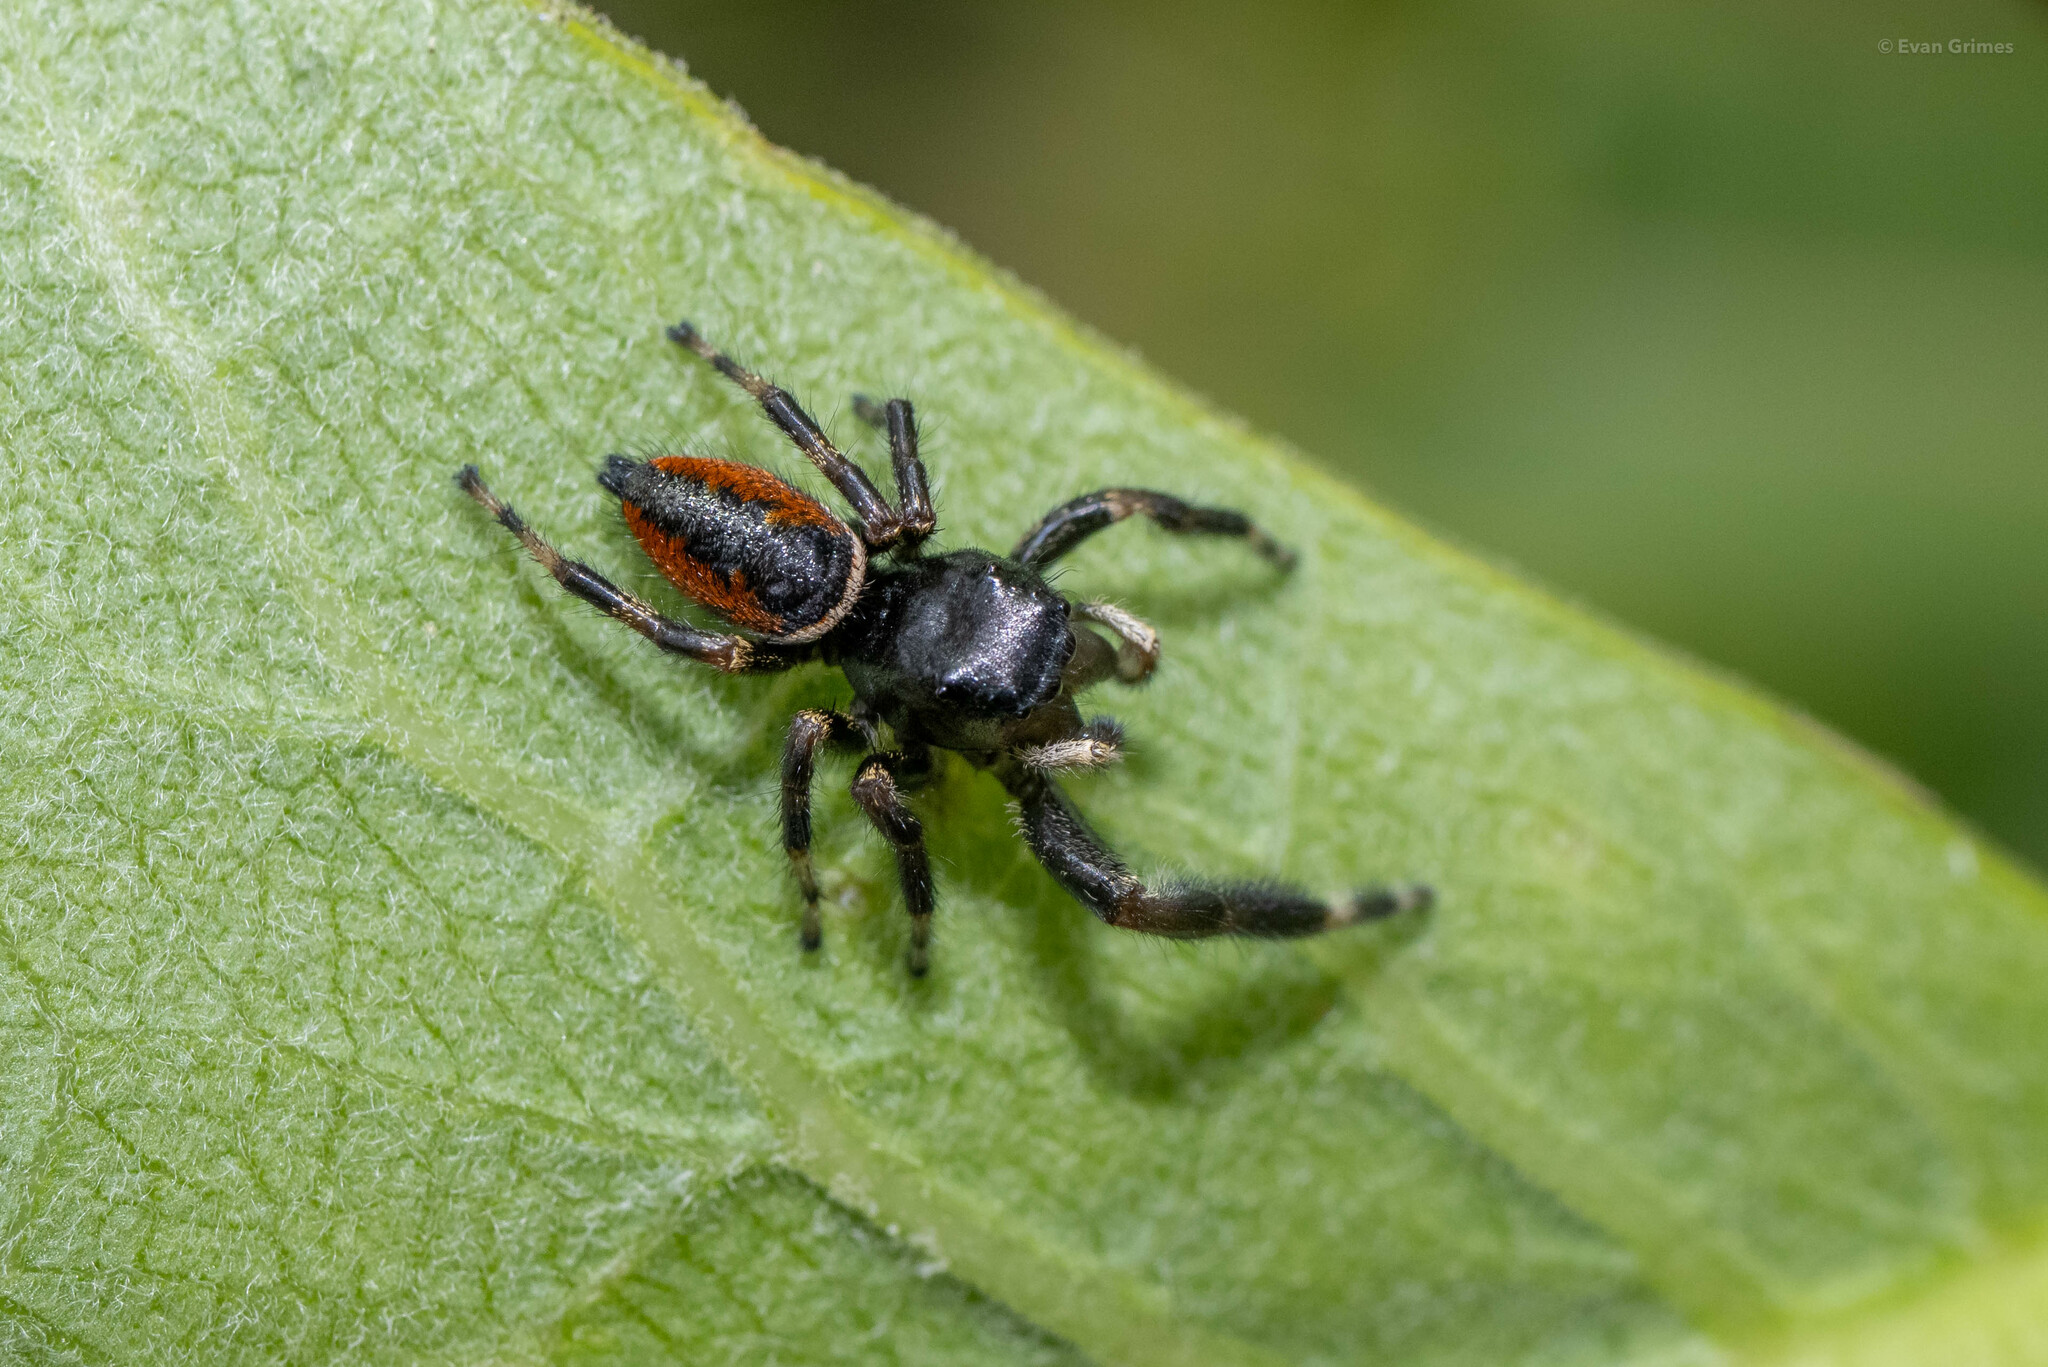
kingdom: Animalia
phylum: Arthropoda
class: Arachnida
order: Araneae
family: Salticidae
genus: Phidippus
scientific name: Phidippus clarus
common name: Brilliant jumping spider
